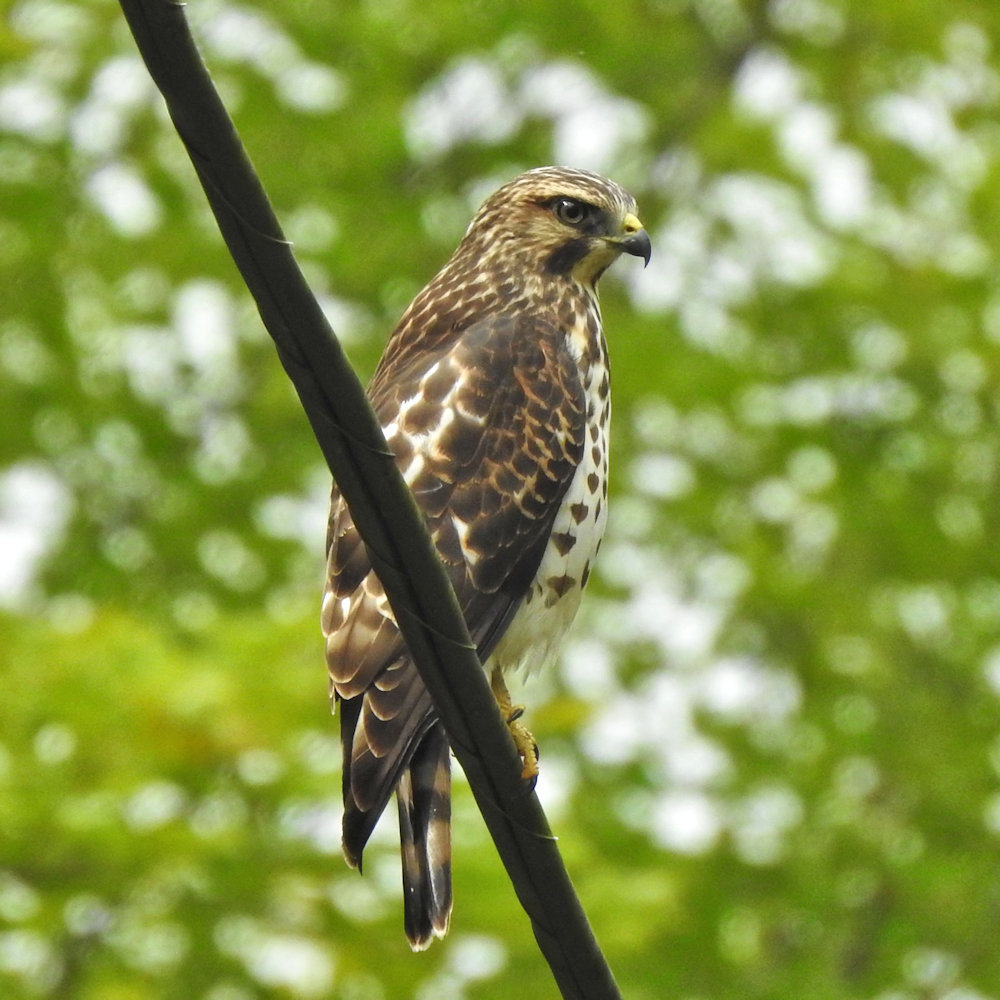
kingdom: Animalia
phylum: Chordata
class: Aves
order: Accipitriformes
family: Accipitridae
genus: Buteo
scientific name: Buteo platypterus
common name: Broad-winged hawk
